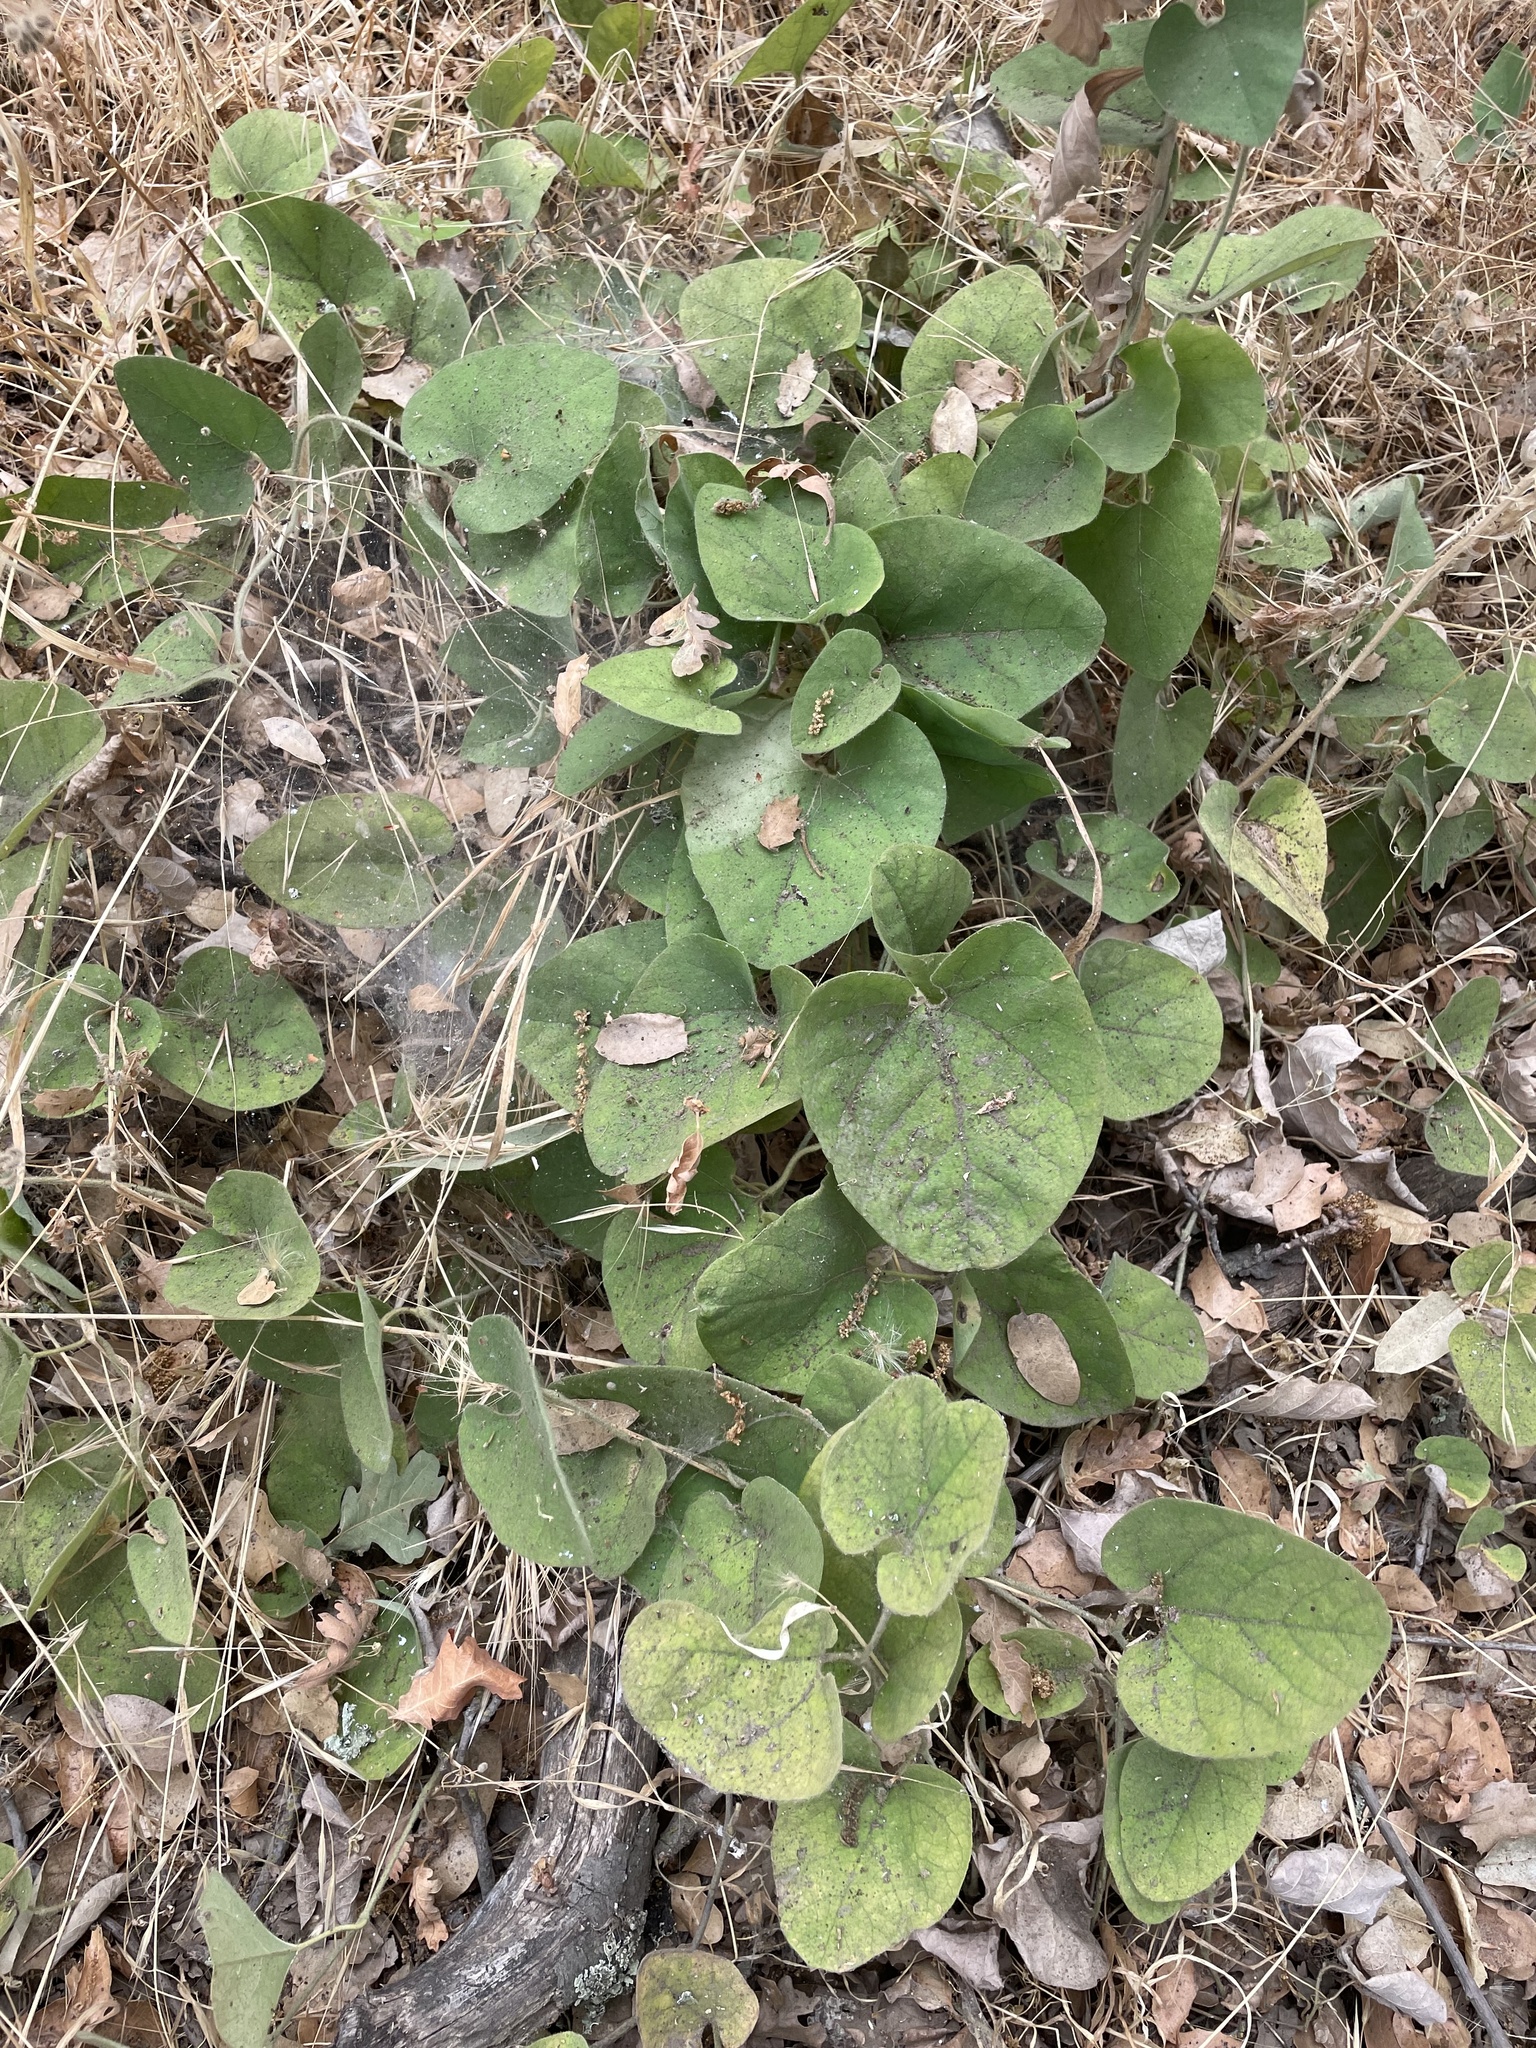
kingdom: Plantae
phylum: Tracheophyta
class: Magnoliopsida
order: Piperales
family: Aristolochiaceae
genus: Isotrema
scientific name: Isotrema californicum
